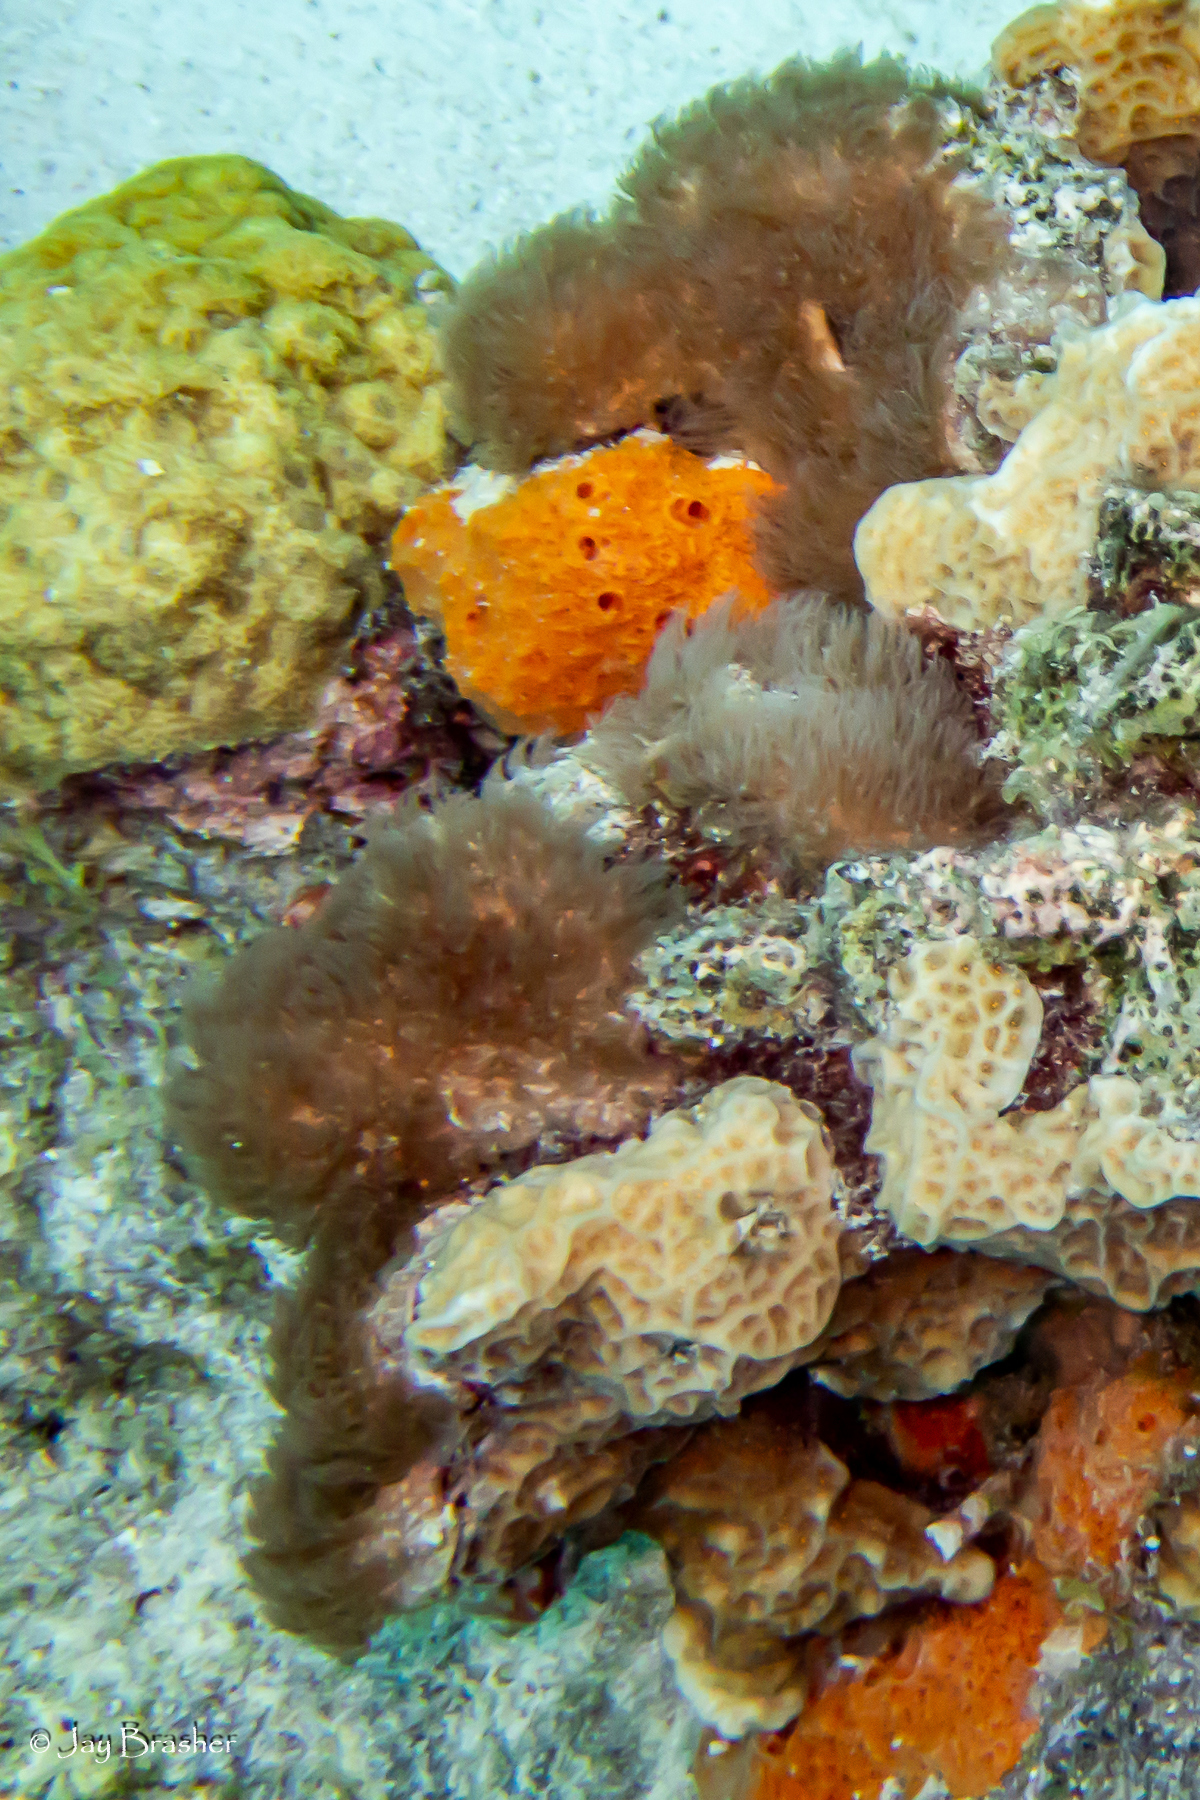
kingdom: Animalia
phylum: Cnidaria
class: Anthozoa
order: Scleralcyonacea
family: Erythropodiidae
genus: Erythropodium
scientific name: Erythropodium caribaeorum
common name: Encrusting gorgonian
